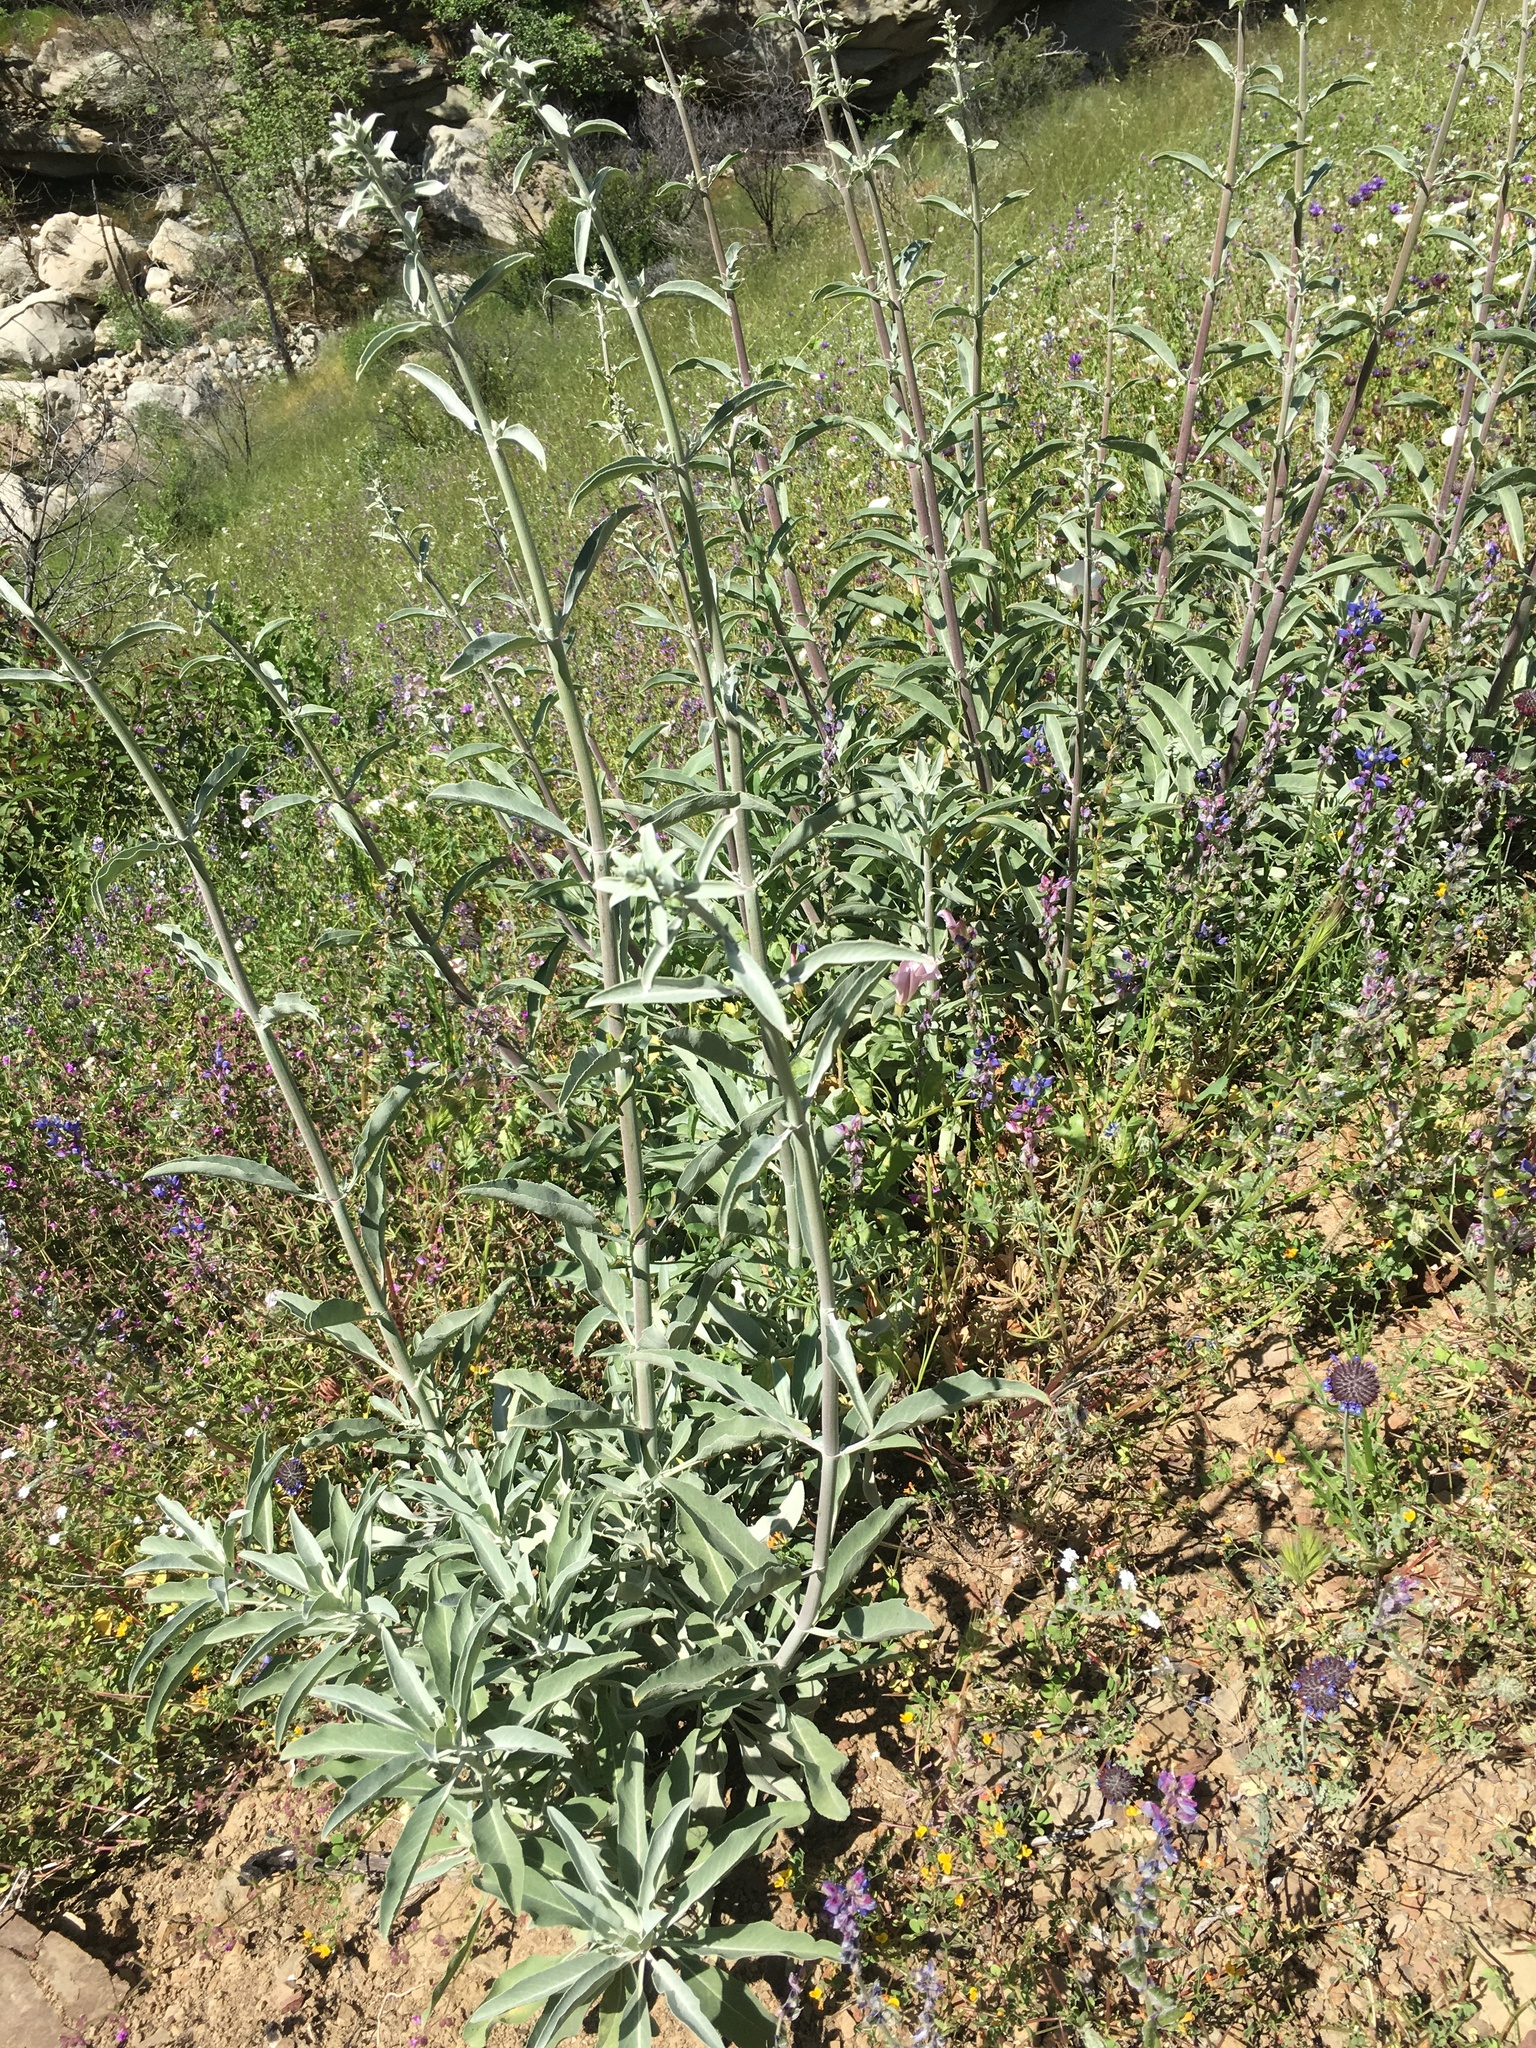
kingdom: Plantae
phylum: Tracheophyta
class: Magnoliopsida
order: Lamiales
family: Lamiaceae
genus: Salvia
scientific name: Salvia apiana
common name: White sage
